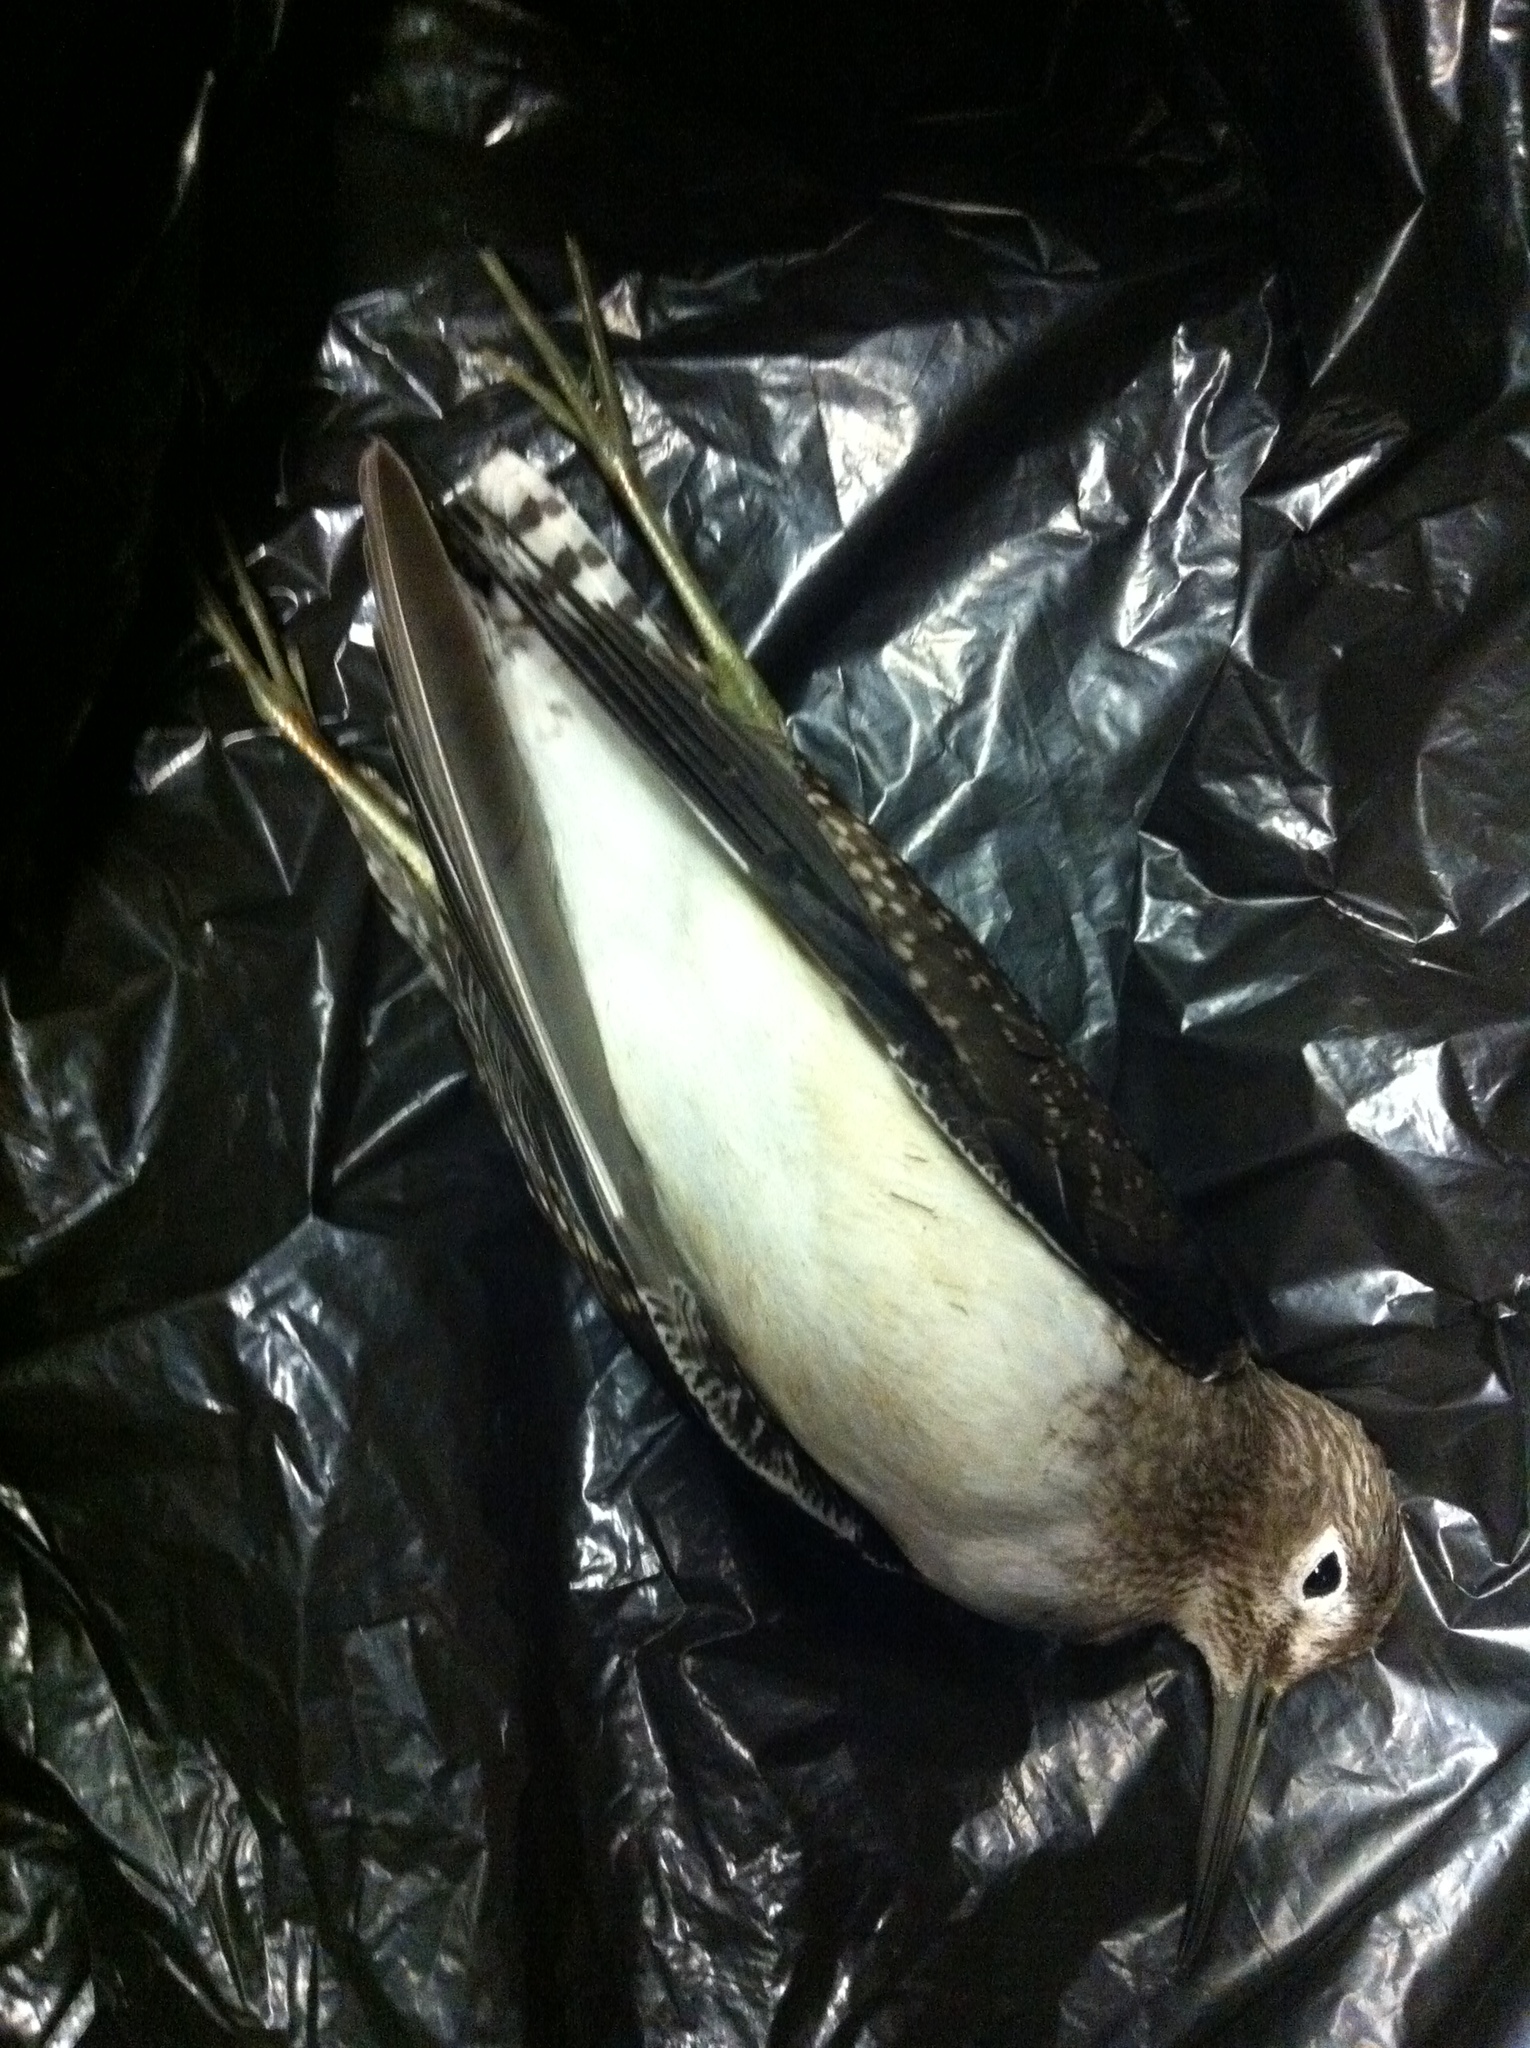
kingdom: Animalia
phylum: Chordata
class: Aves
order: Charadriiformes
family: Scolopacidae
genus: Tringa
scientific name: Tringa solitaria
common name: Solitary sandpiper
